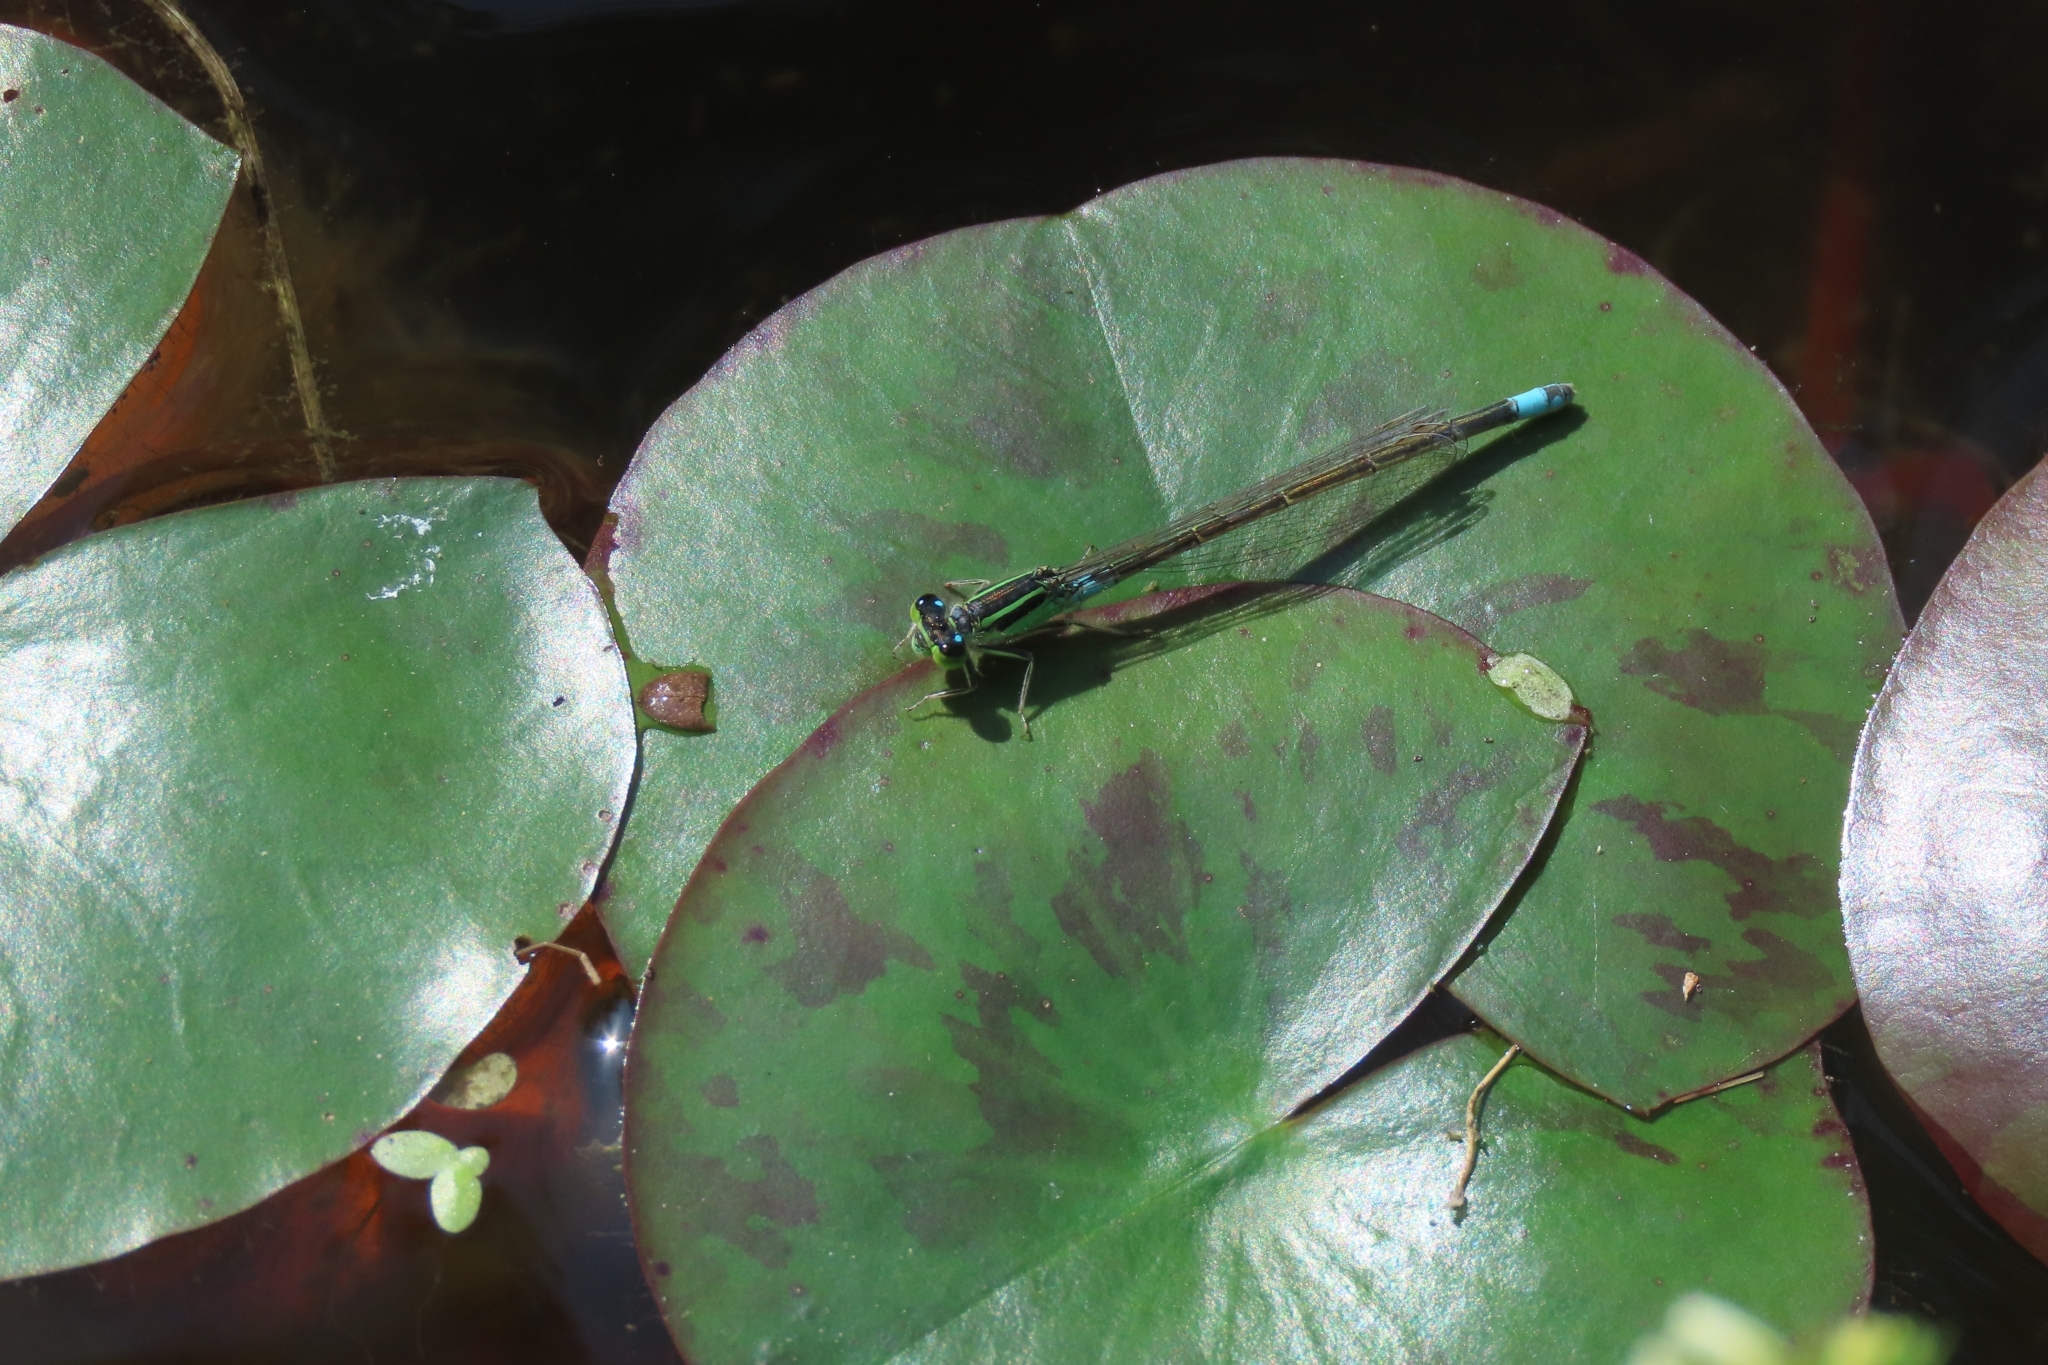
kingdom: Animalia
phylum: Arthropoda
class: Insecta
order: Odonata
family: Coenagrionidae
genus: Ischnura
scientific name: Ischnura senegalensis
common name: Tropical bluetail
